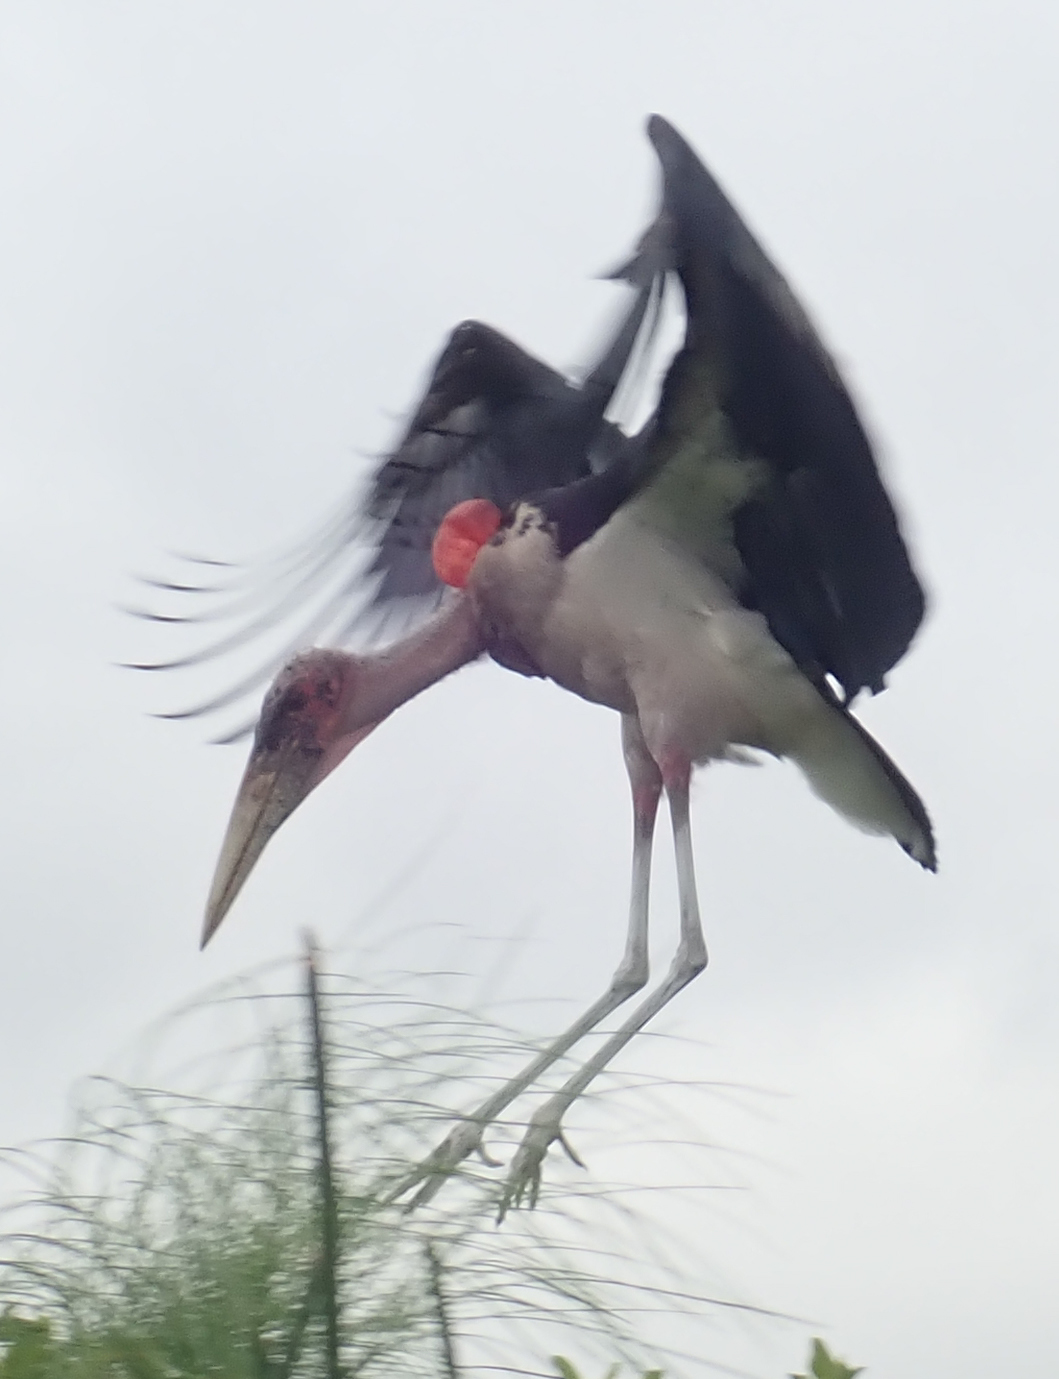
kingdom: Animalia
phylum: Chordata
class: Aves
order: Ciconiiformes
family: Ciconiidae
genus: Leptoptilos
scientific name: Leptoptilos crumenifer
